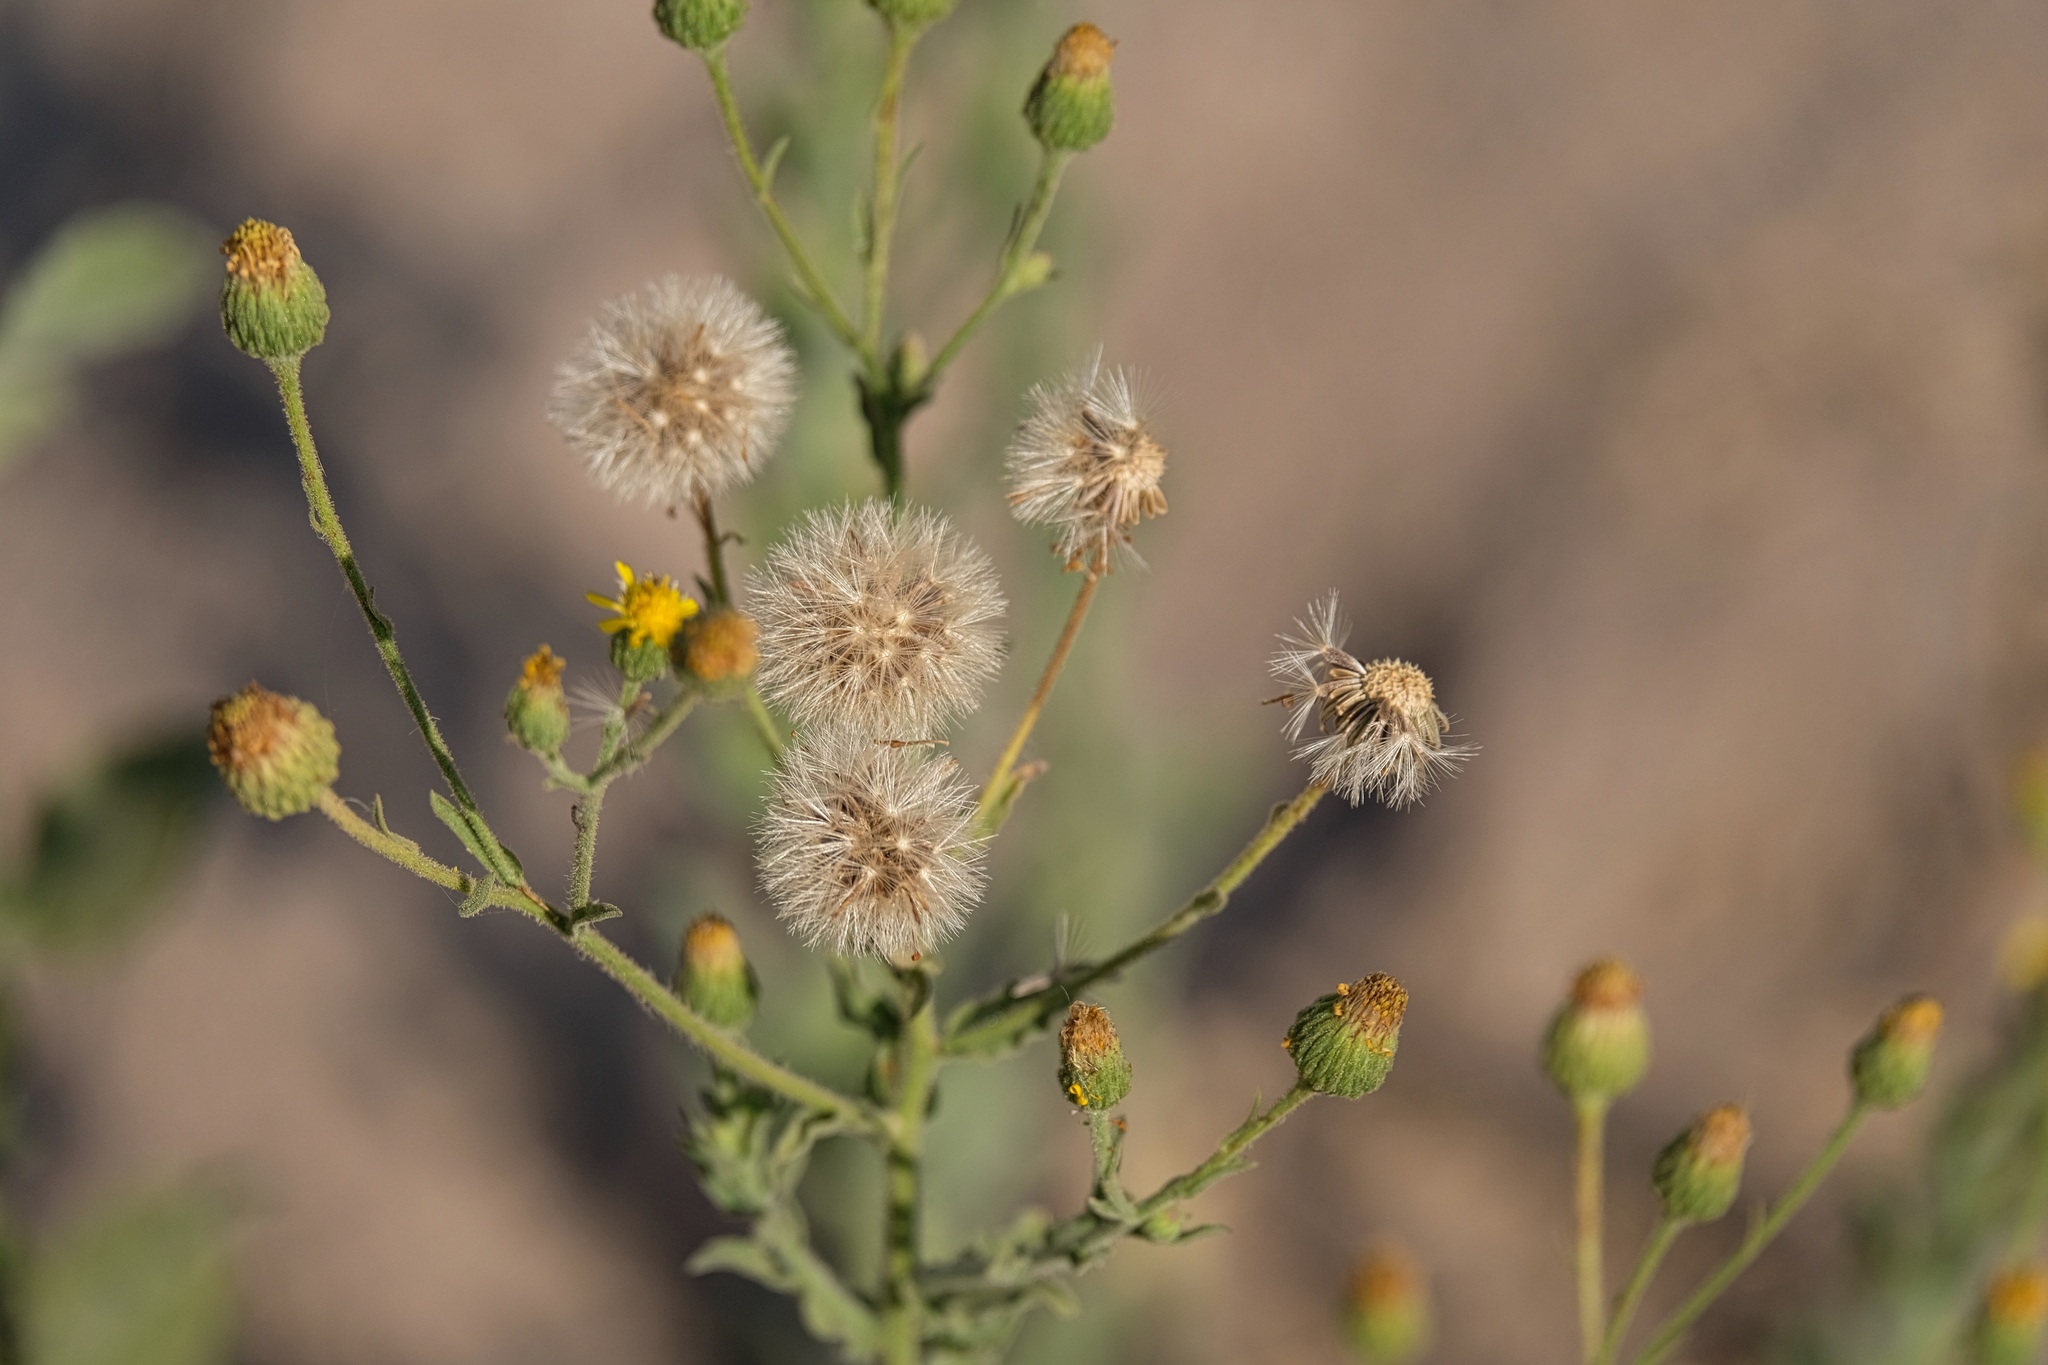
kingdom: Plantae
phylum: Tracheophyta
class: Magnoliopsida
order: Asterales
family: Asteraceae
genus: Heterotheca
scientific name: Heterotheca grandiflora
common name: Telegraphweed
